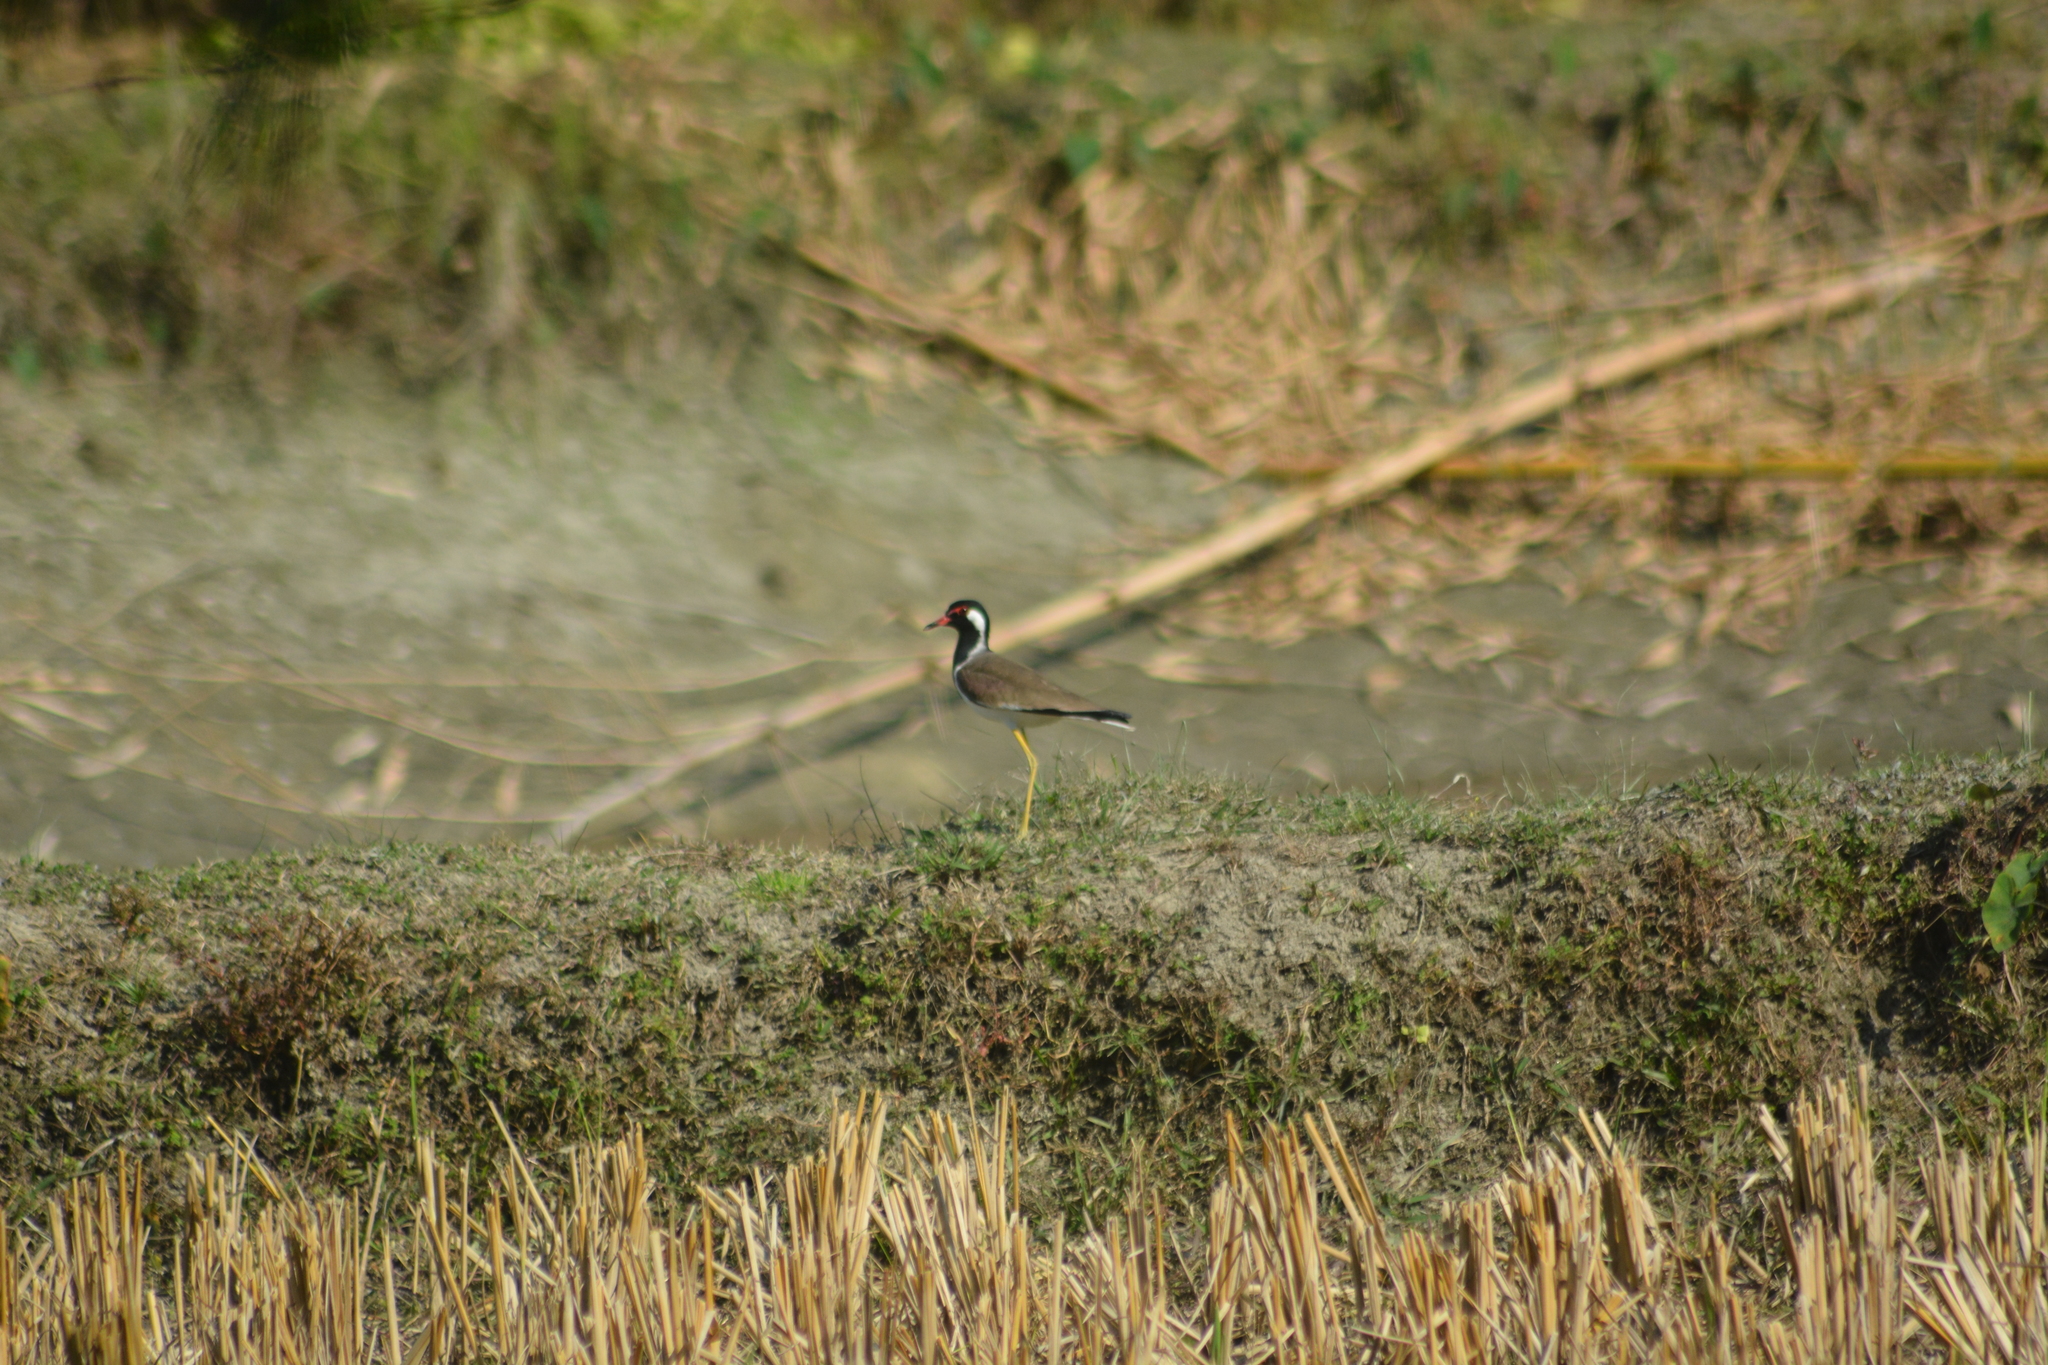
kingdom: Animalia
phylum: Chordata
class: Aves
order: Charadriiformes
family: Charadriidae
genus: Vanellus
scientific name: Vanellus indicus
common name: Red-wattled lapwing
